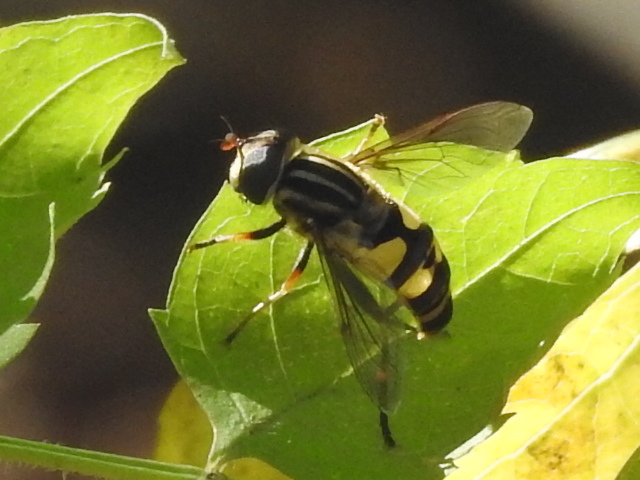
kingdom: Animalia
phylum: Arthropoda
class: Insecta
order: Diptera
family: Syrphidae
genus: Helophilus
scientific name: Helophilus fasciatus
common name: Narrow-headed marsh fly
